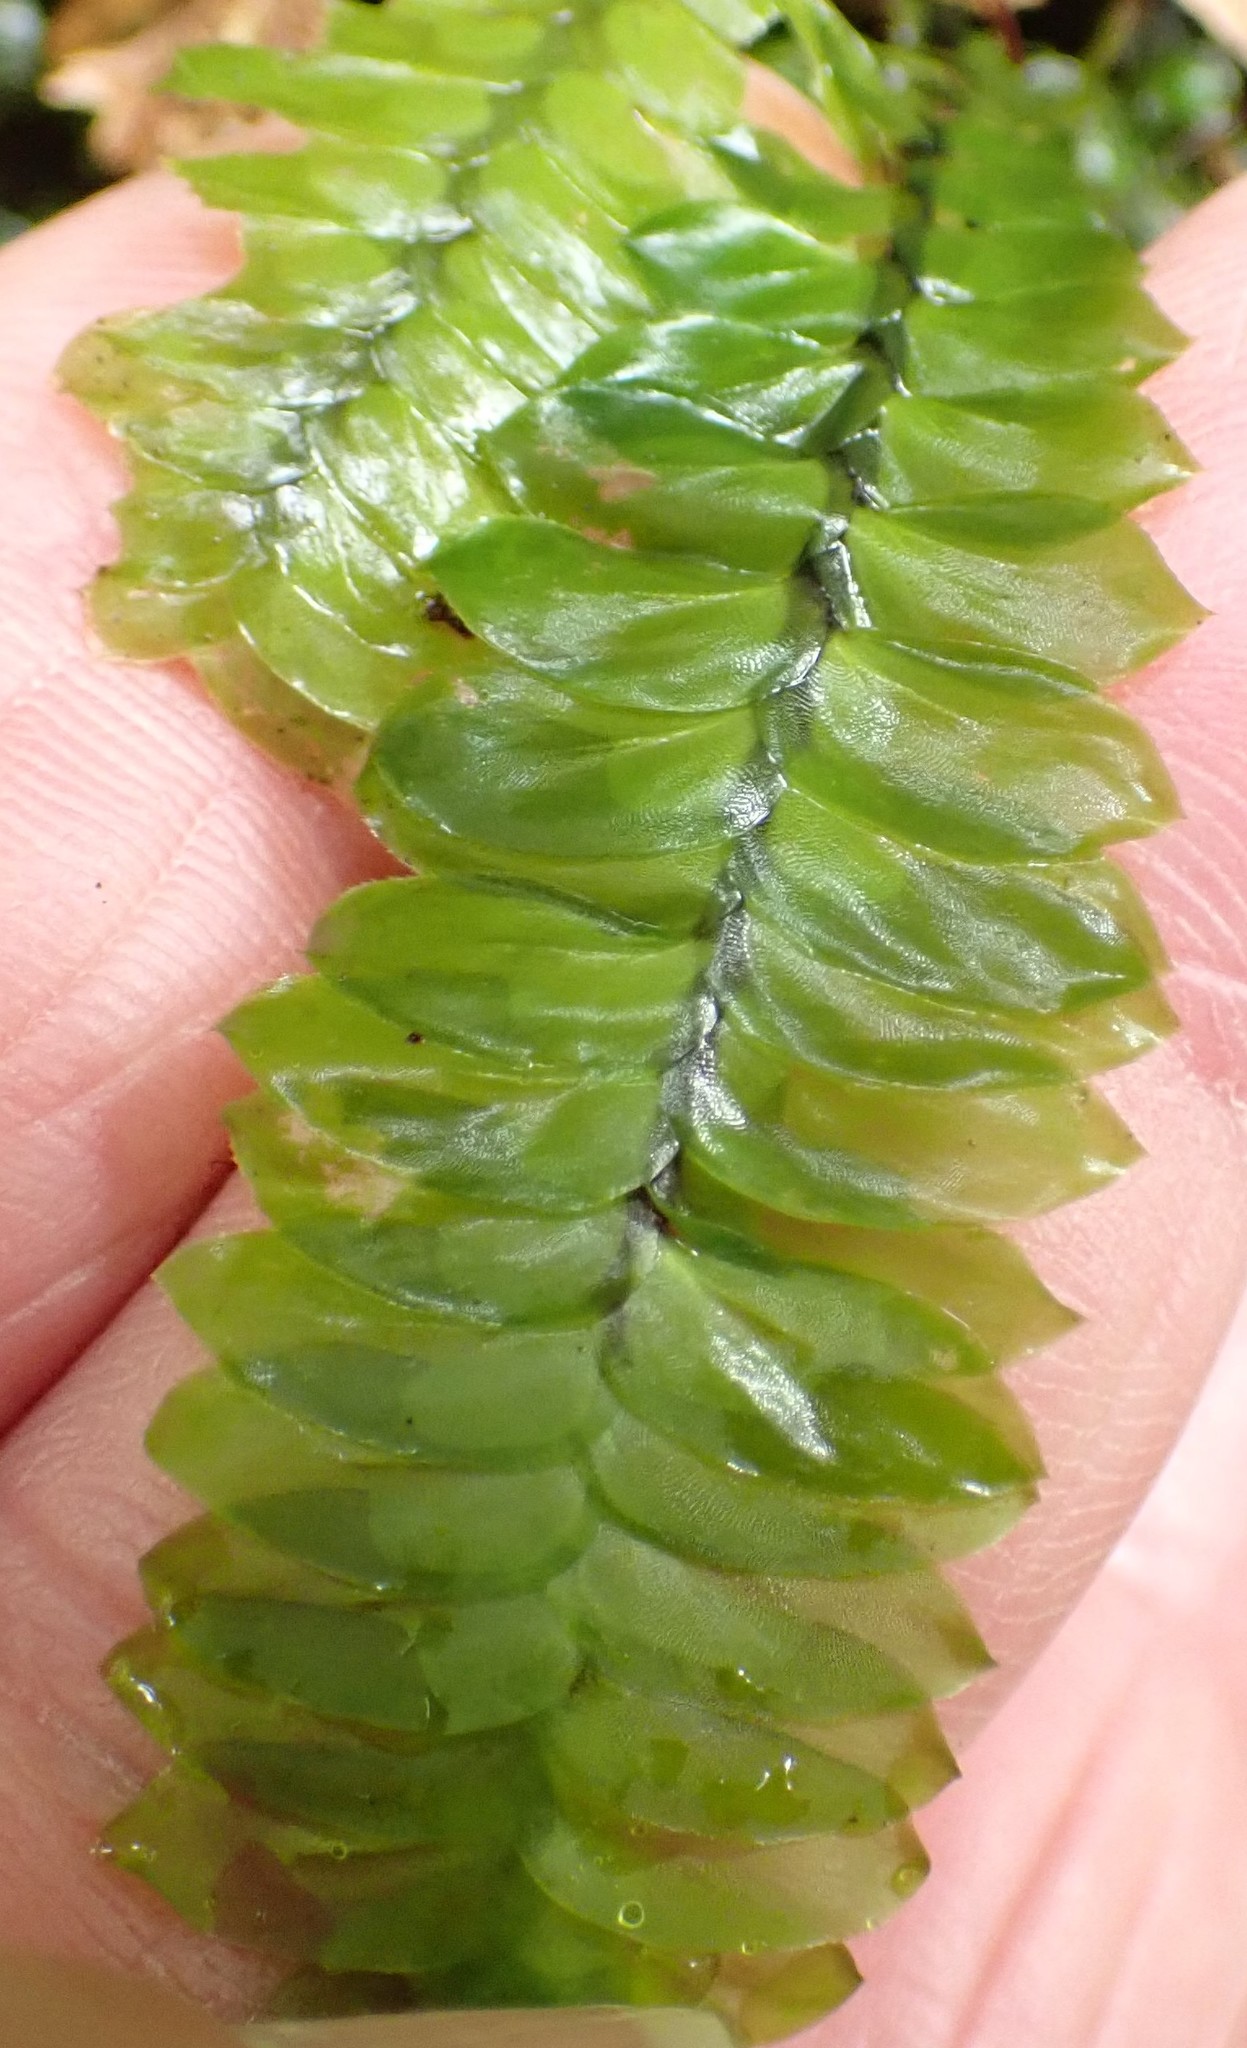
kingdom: Plantae
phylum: Bryophyta
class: Bryopsida
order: Hypopterygiales
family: Hypopterygiaceae
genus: Cyathophorum
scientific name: Cyathophorum bulbosum
